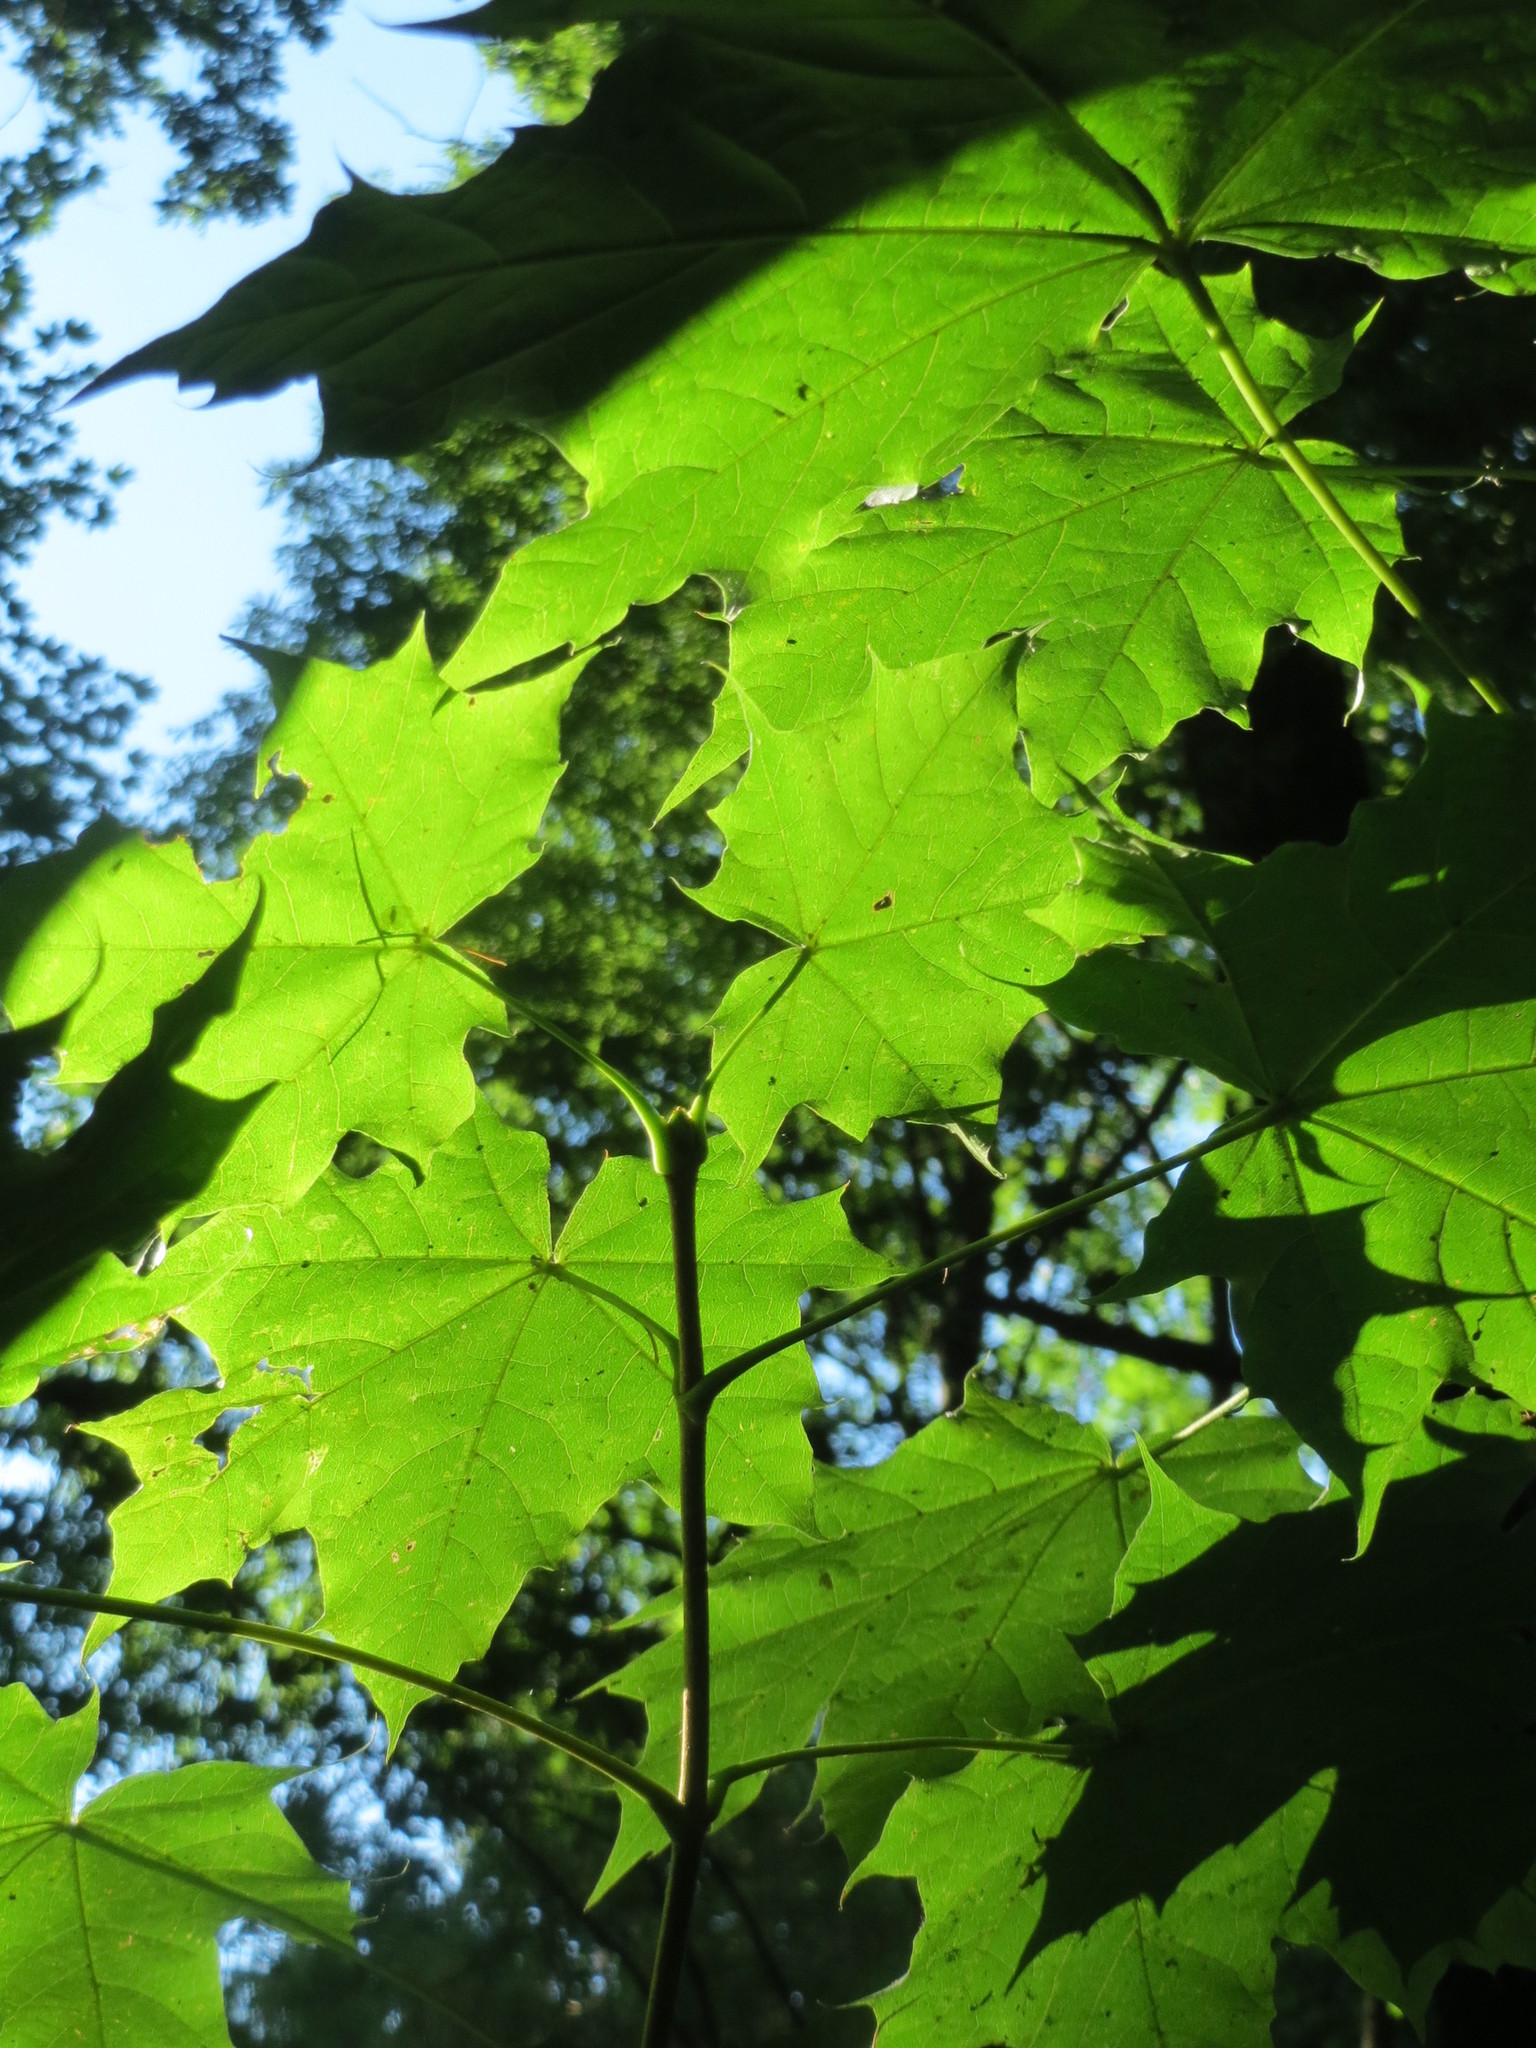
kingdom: Plantae
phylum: Tracheophyta
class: Magnoliopsida
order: Sapindales
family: Sapindaceae
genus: Acer
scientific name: Acer platanoides
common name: Norway maple
